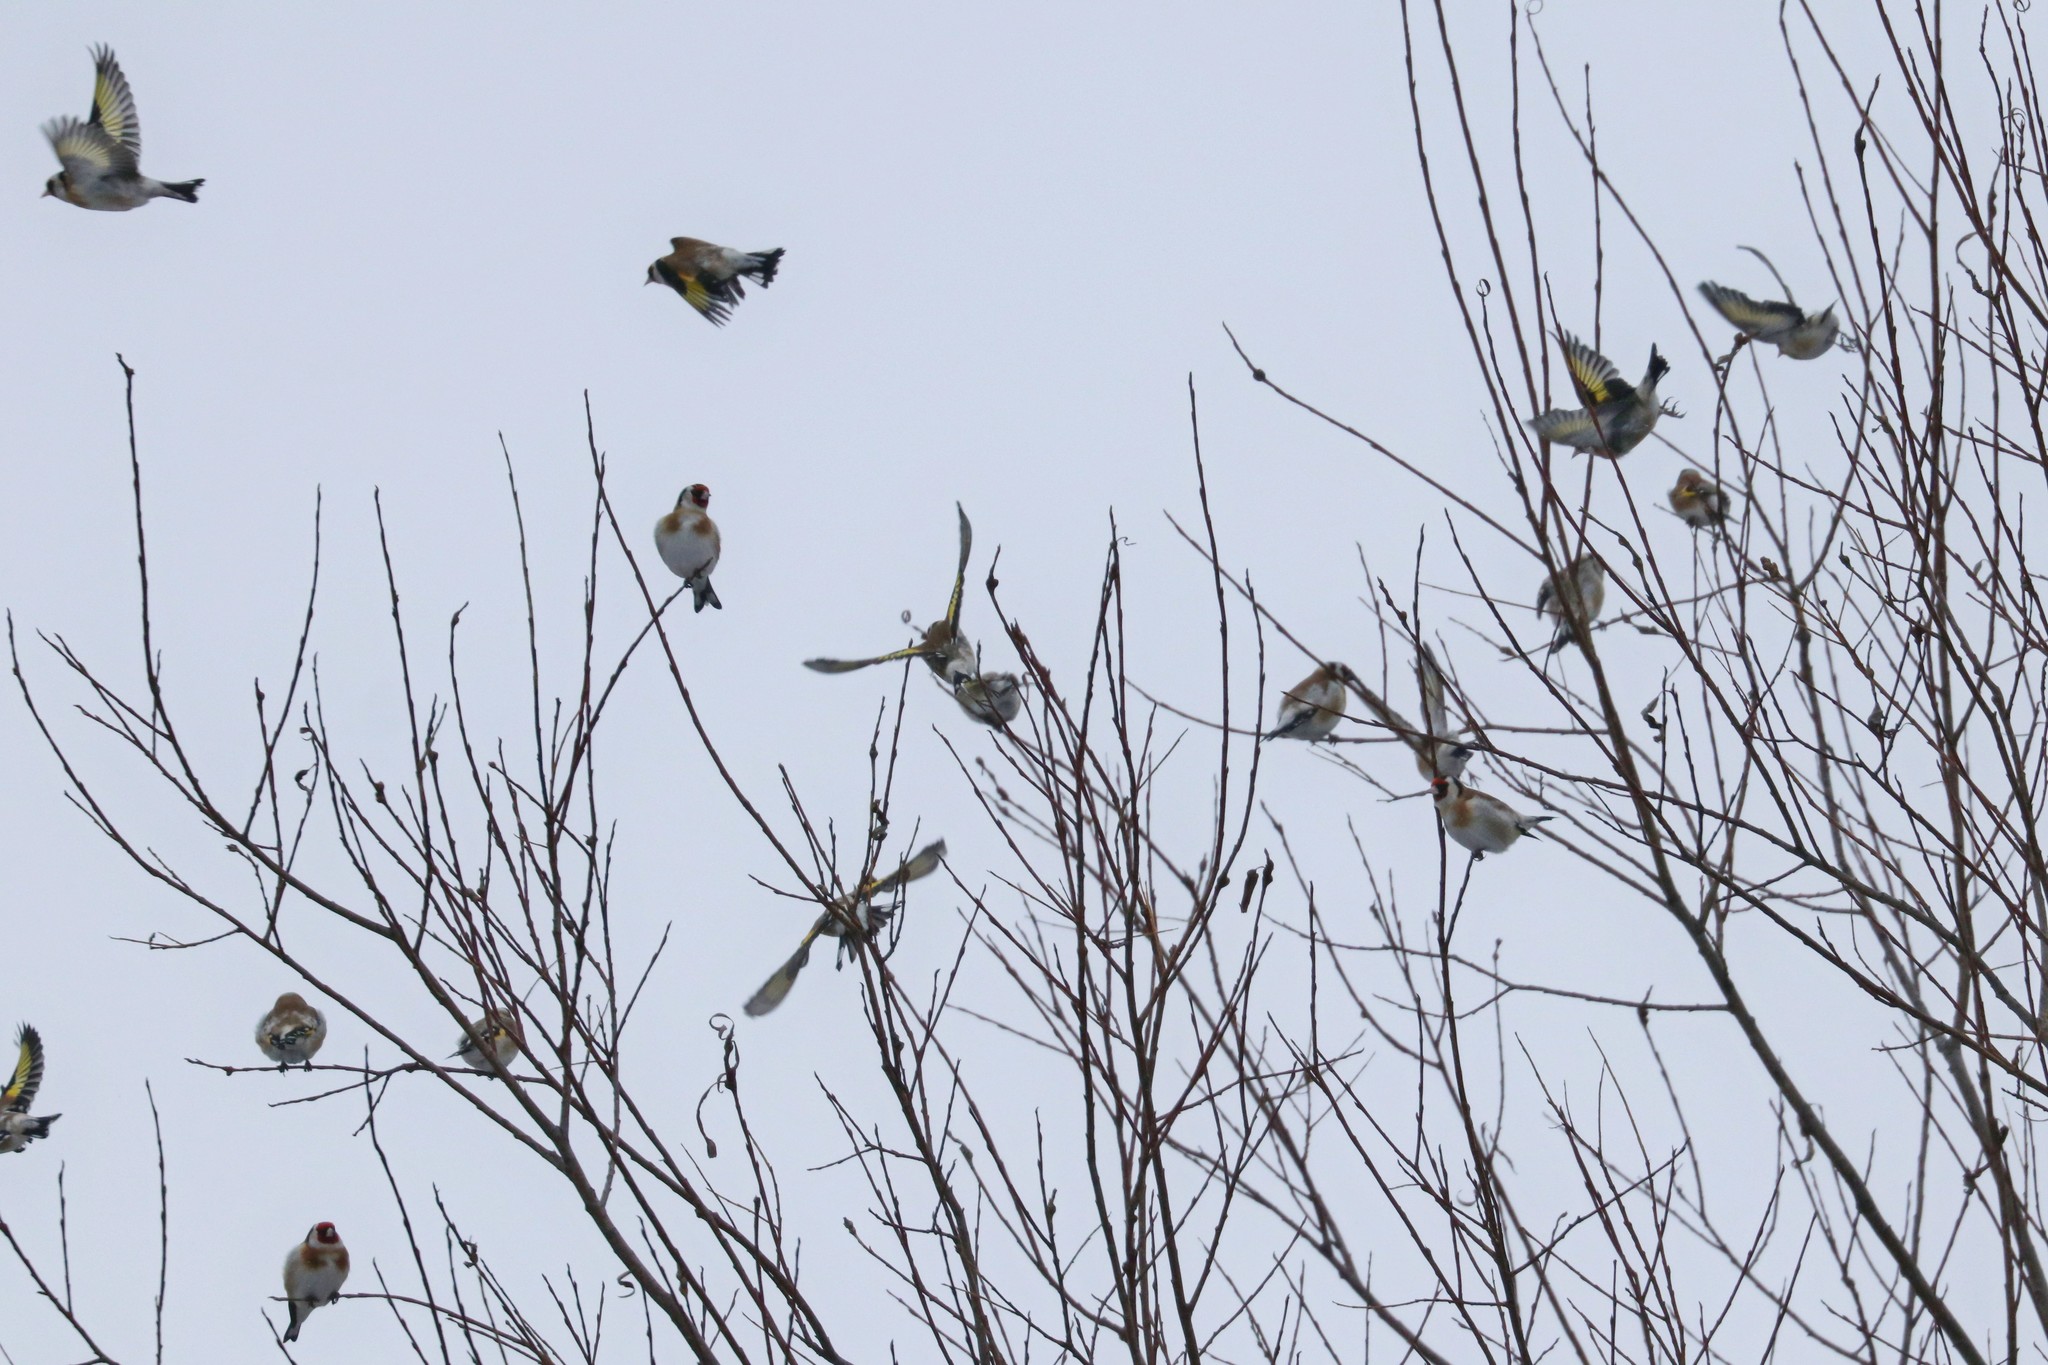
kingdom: Animalia
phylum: Chordata
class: Aves
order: Passeriformes
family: Fringillidae
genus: Carduelis
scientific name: Carduelis carduelis
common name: European goldfinch
